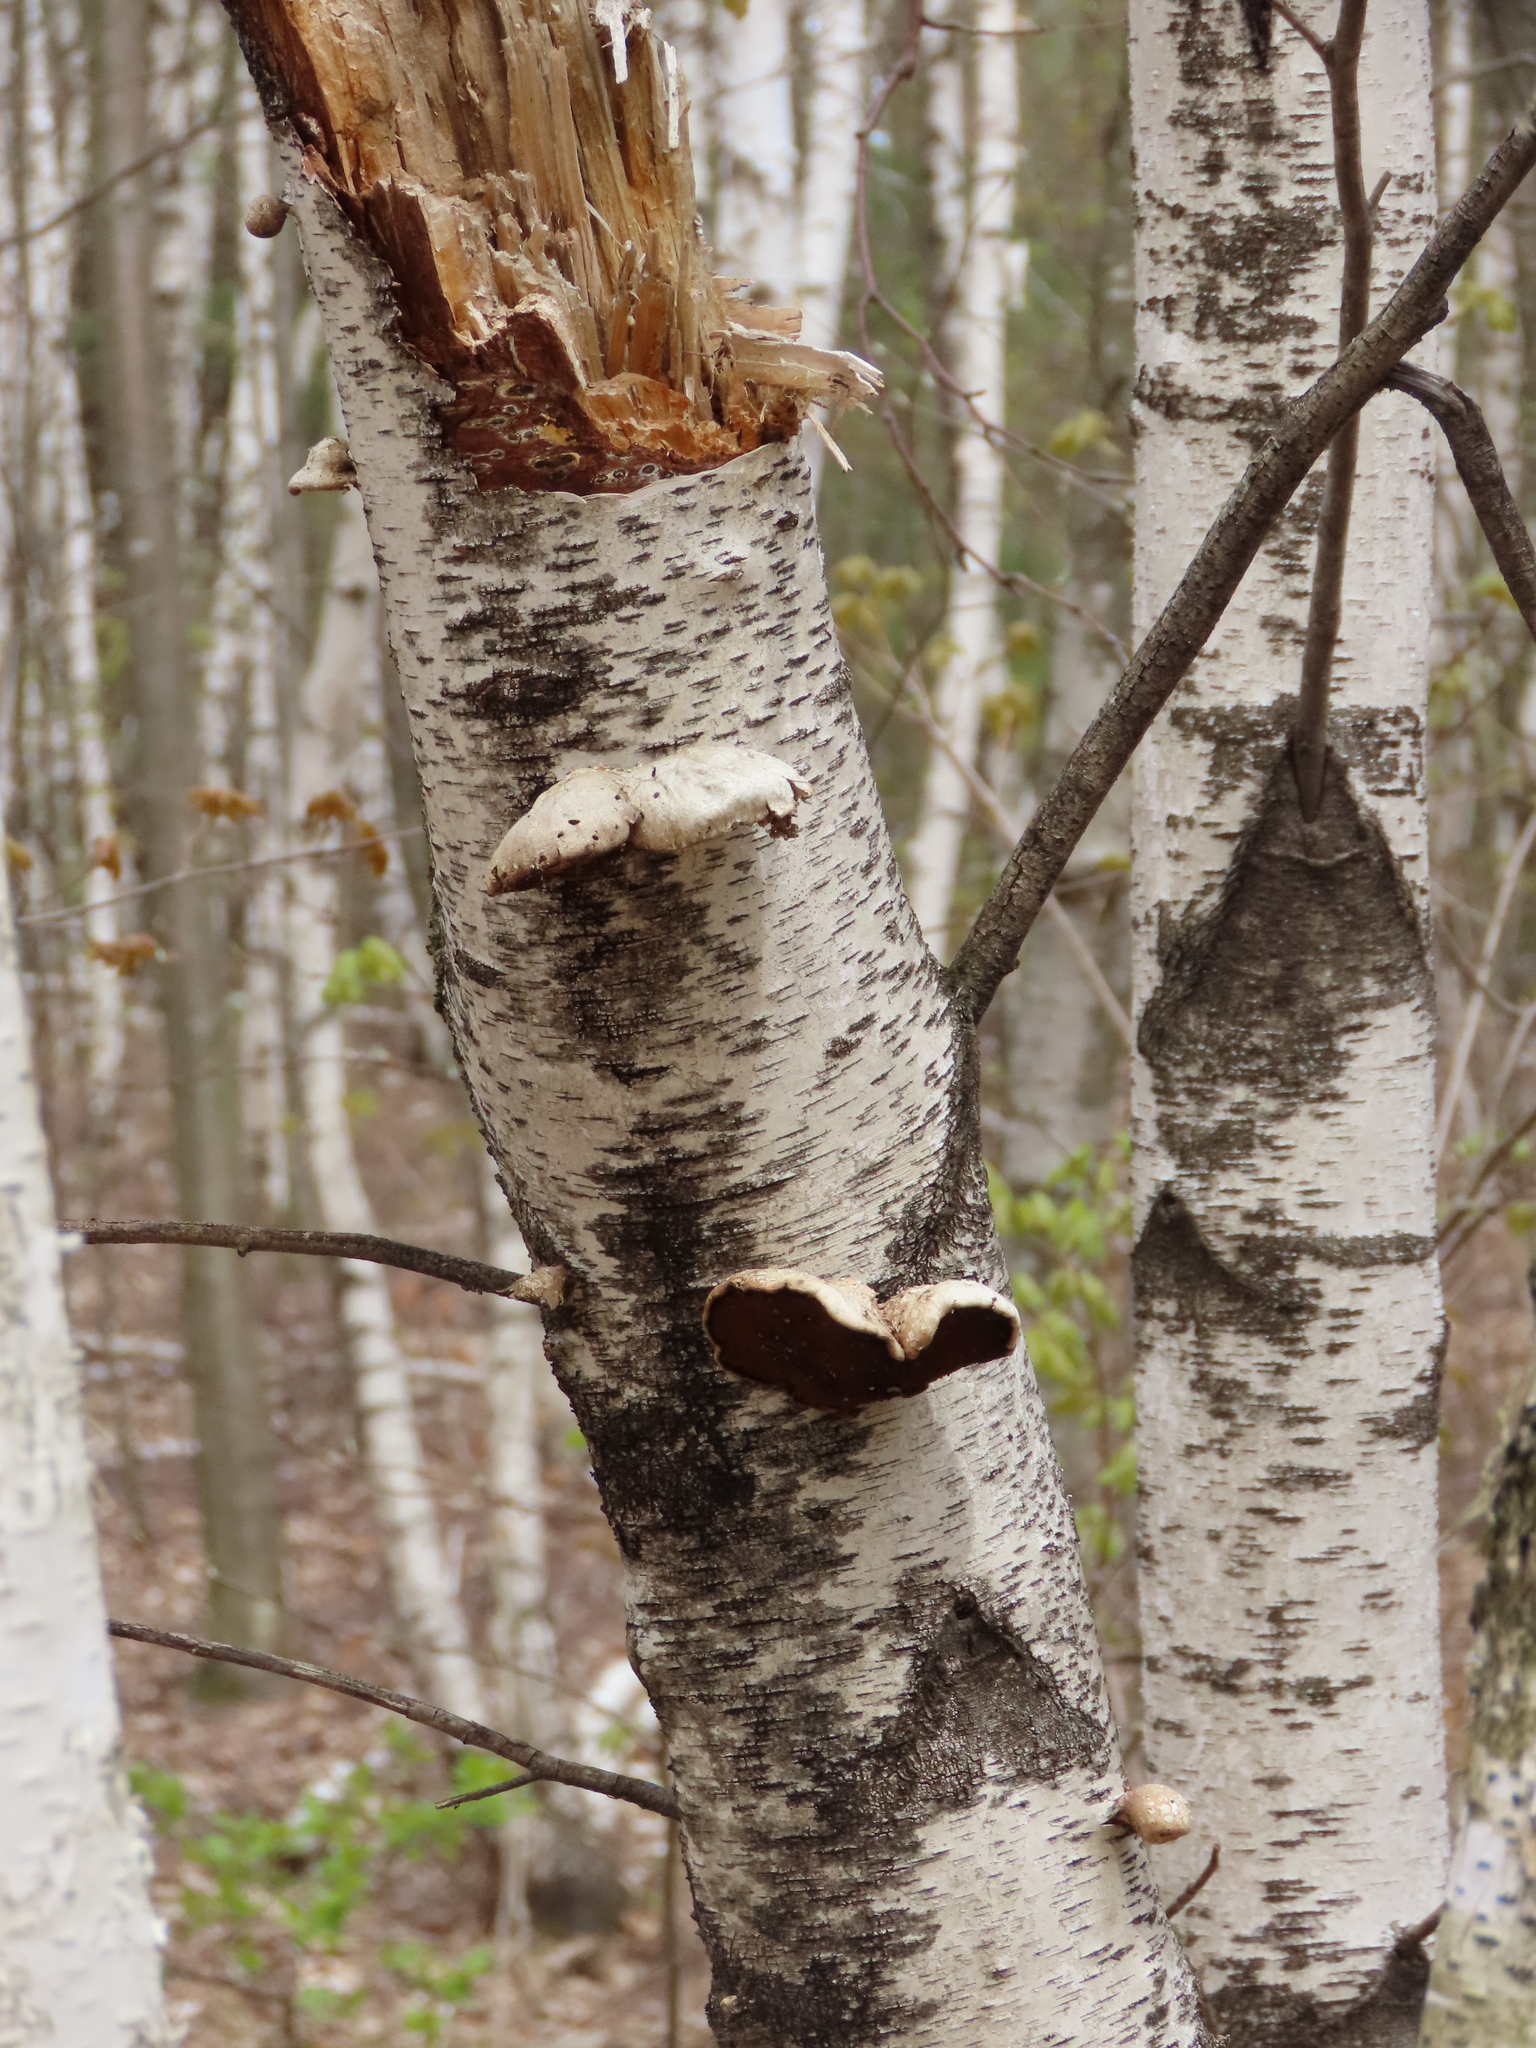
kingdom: Fungi
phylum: Basidiomycota
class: Agaricomycetes
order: Polyporales
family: Fomitopsidaceae
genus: Fomitopsis
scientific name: Fomitopsis betulina
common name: Birch polypore
